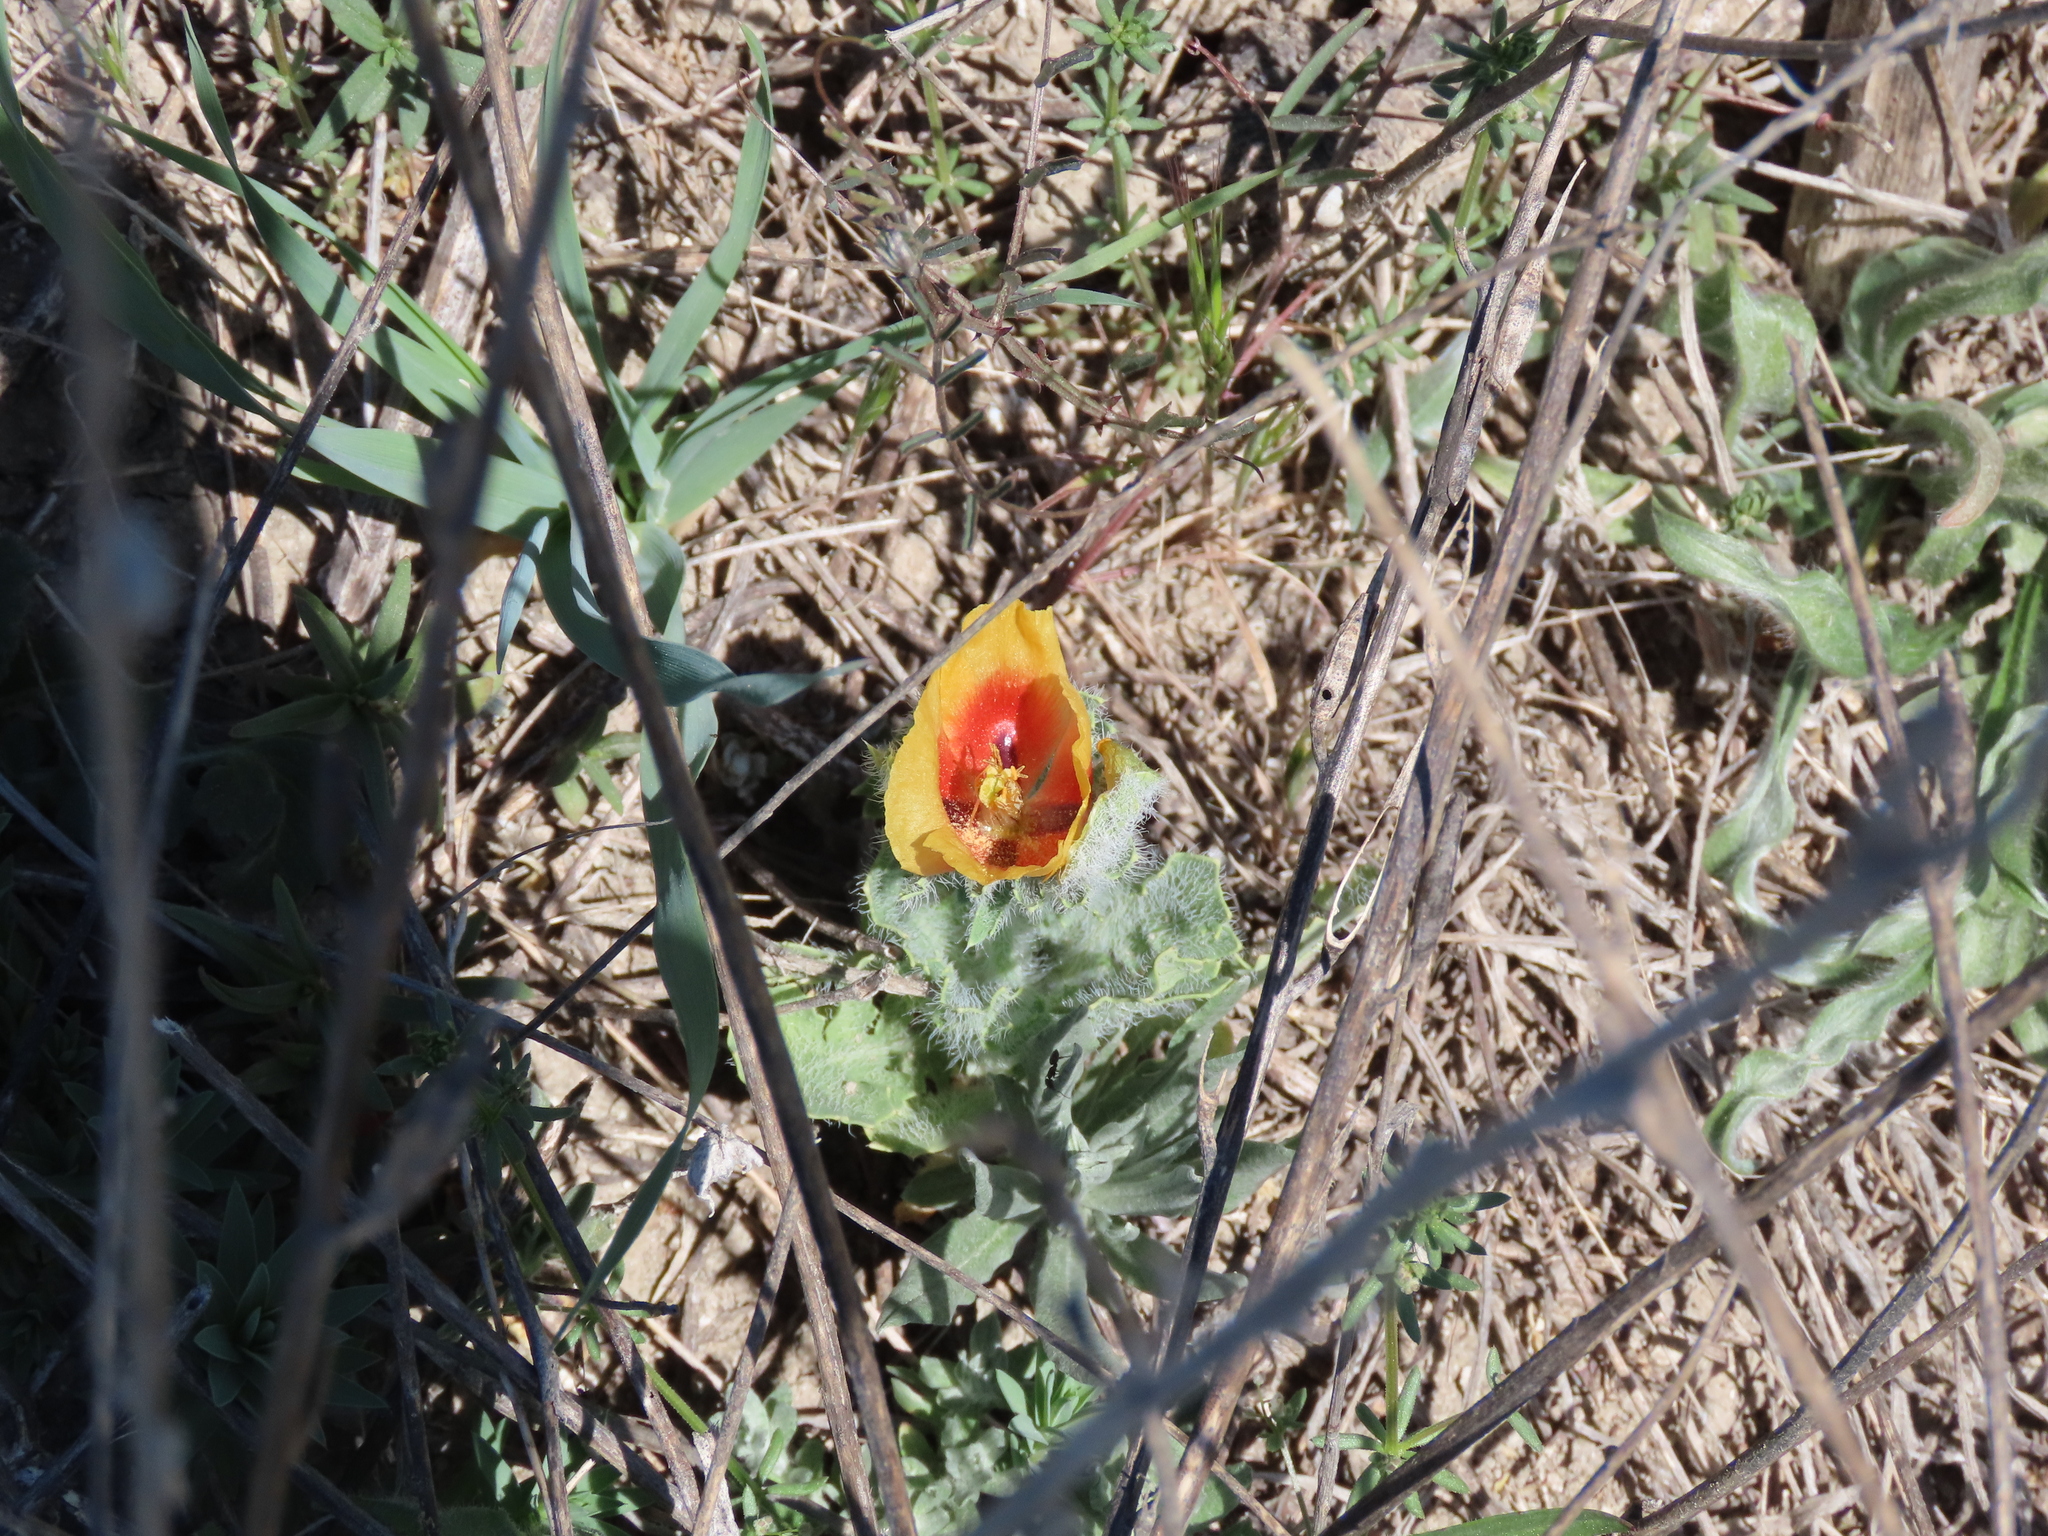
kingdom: Plantae
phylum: Tracheophyta
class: Magnoliopsida
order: Ranunculales
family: Papaveraceae
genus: Glaucium
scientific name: Glaucium corniculatum
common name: Red horned-poppy
